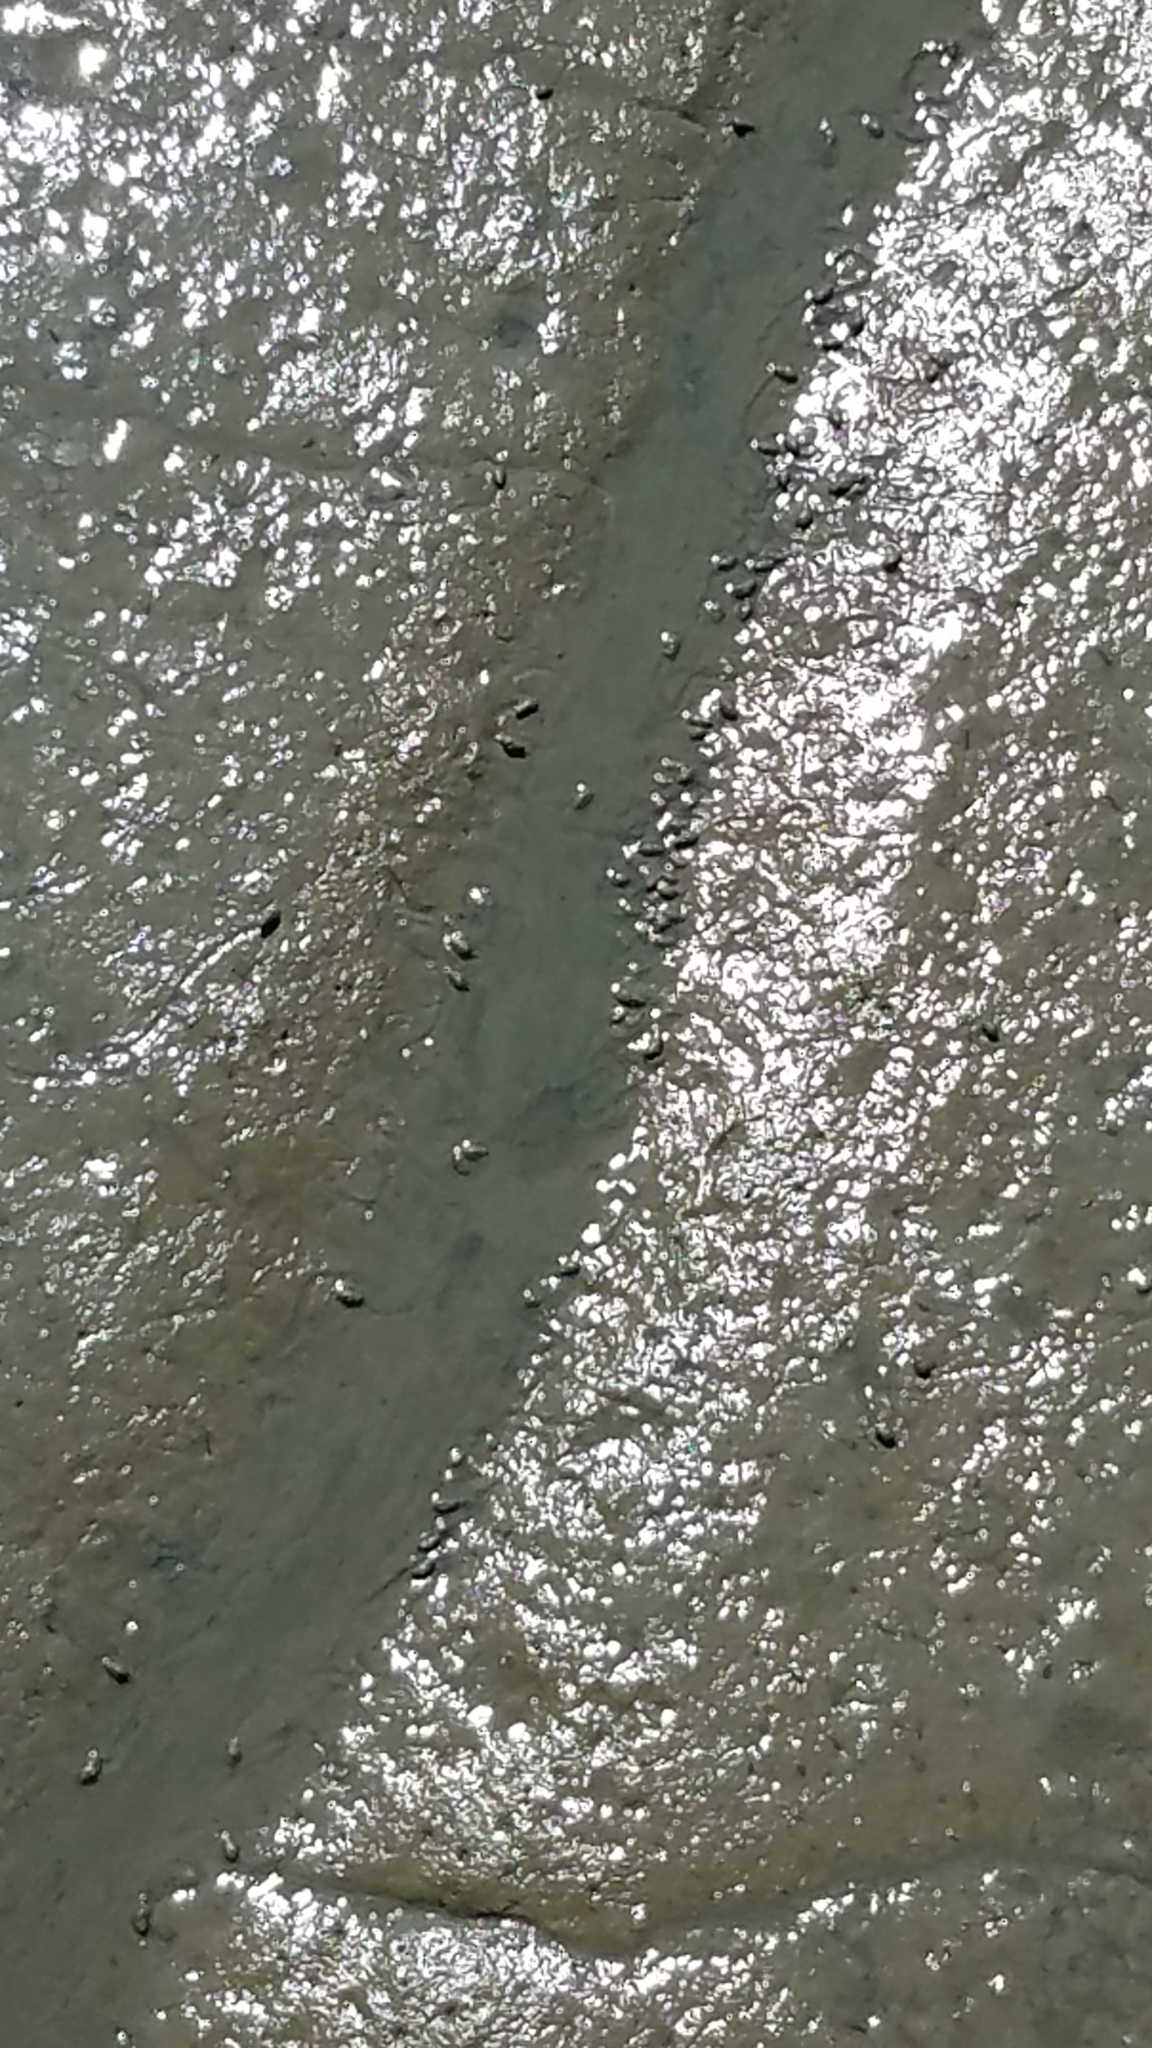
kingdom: Animalia
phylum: Mollusca
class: Gastropoda
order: Neogastropoda
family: Nassariidae
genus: Ilyanassa
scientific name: Ilyanassa obsoleta
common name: Eastern mudsnail
